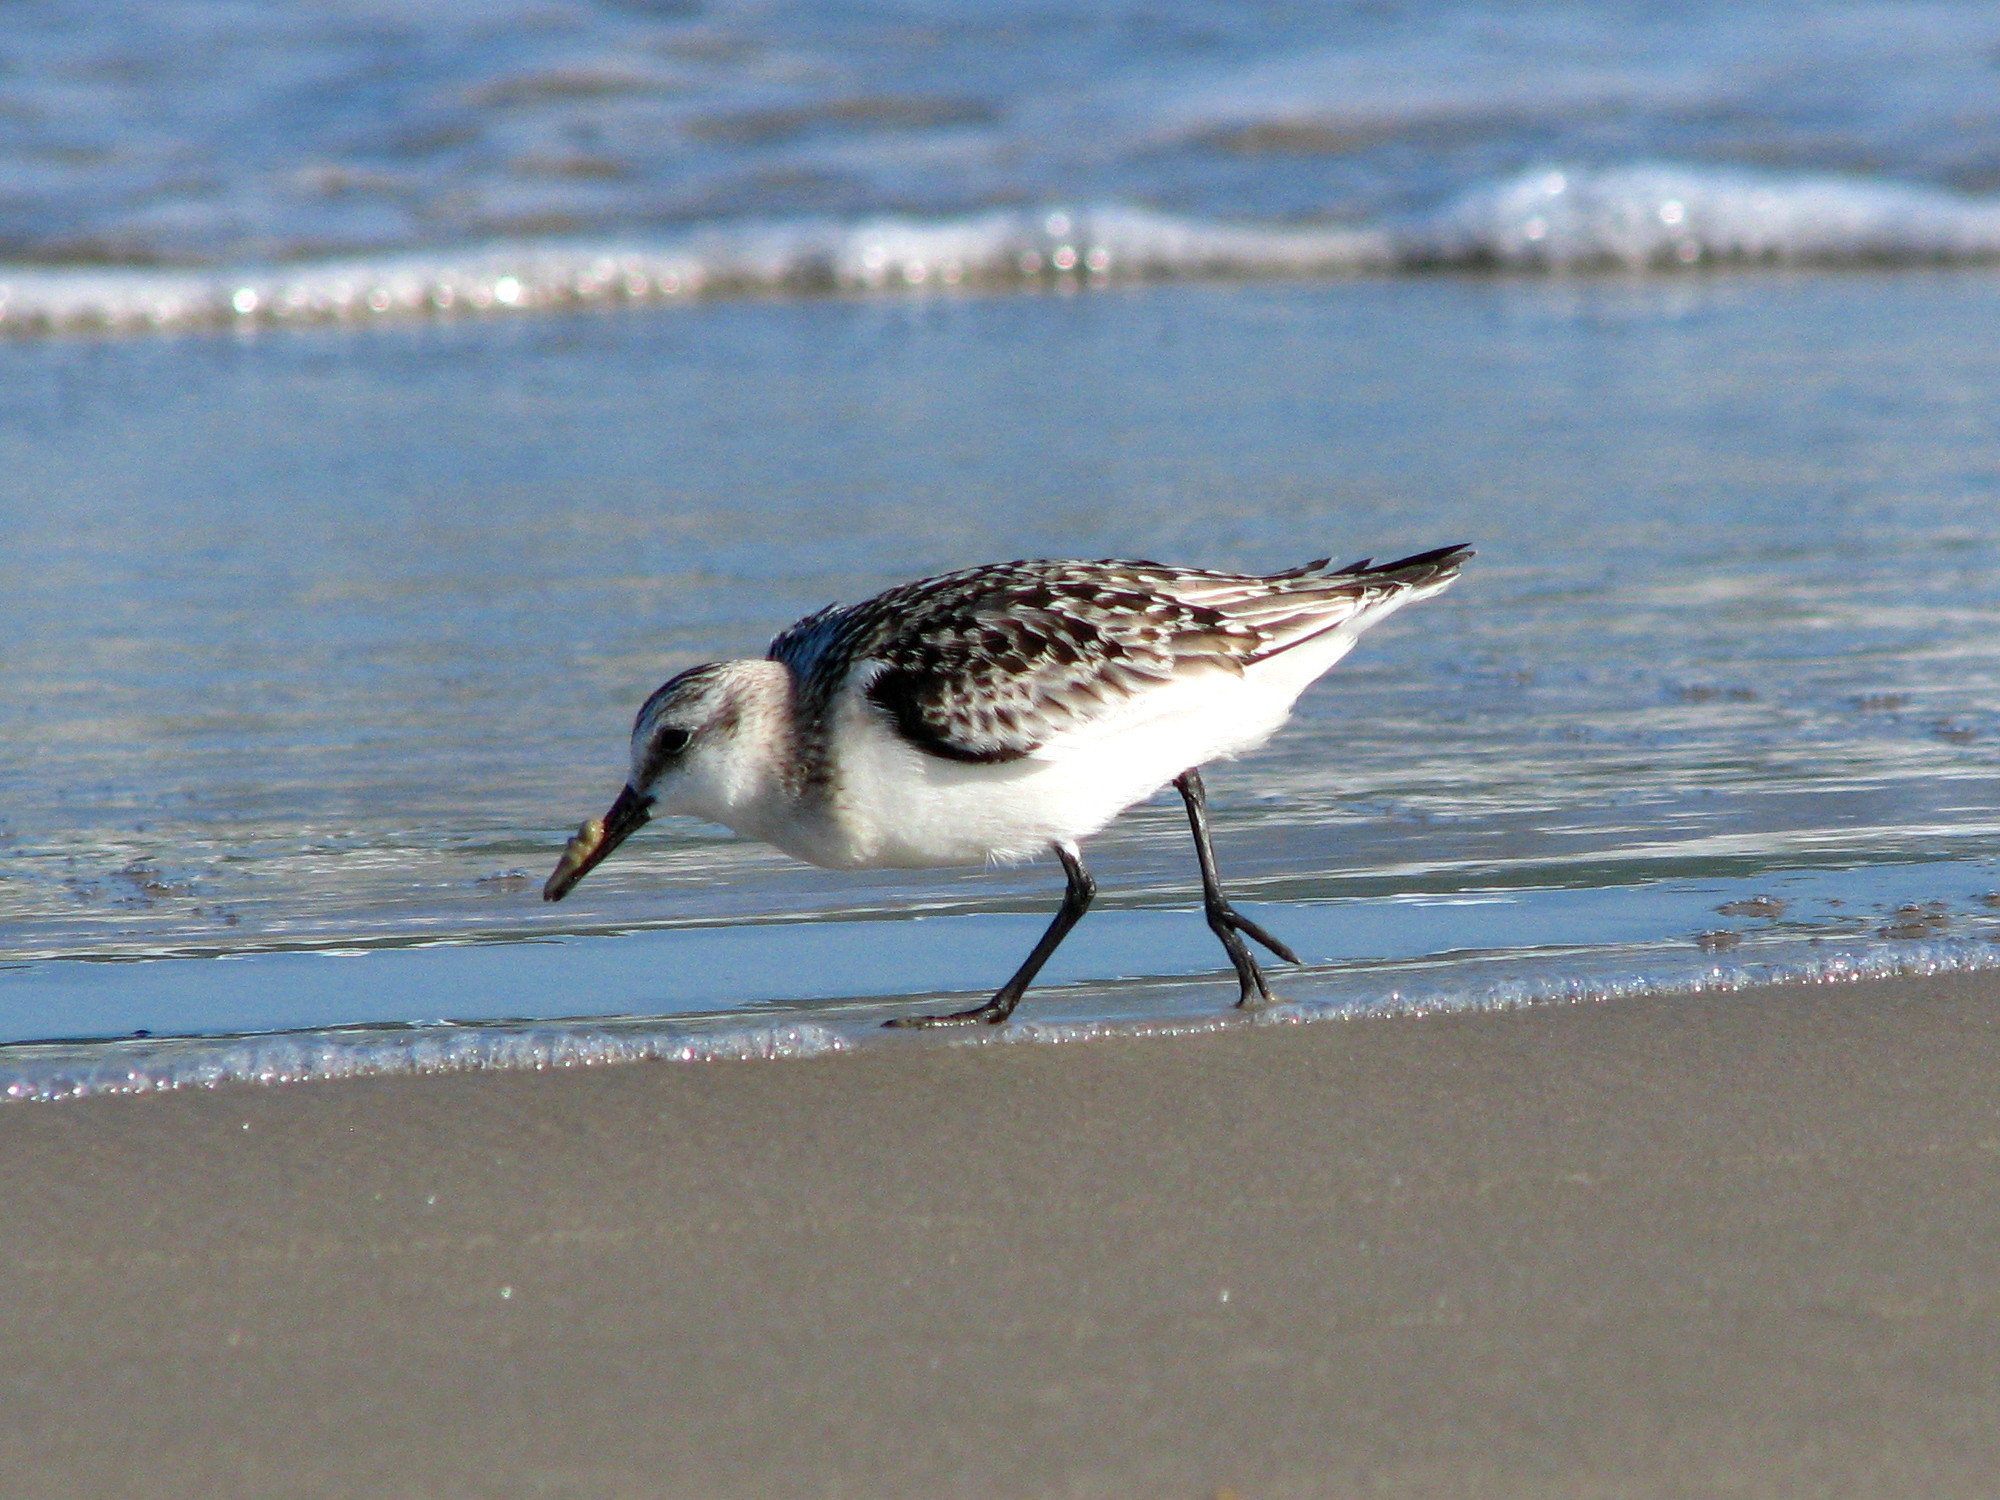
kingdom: Animalia
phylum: Chordata
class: Aves
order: Charadriiformes
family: Scolopacidae
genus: Calidris
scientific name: Calidris alba
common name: Sanderling
